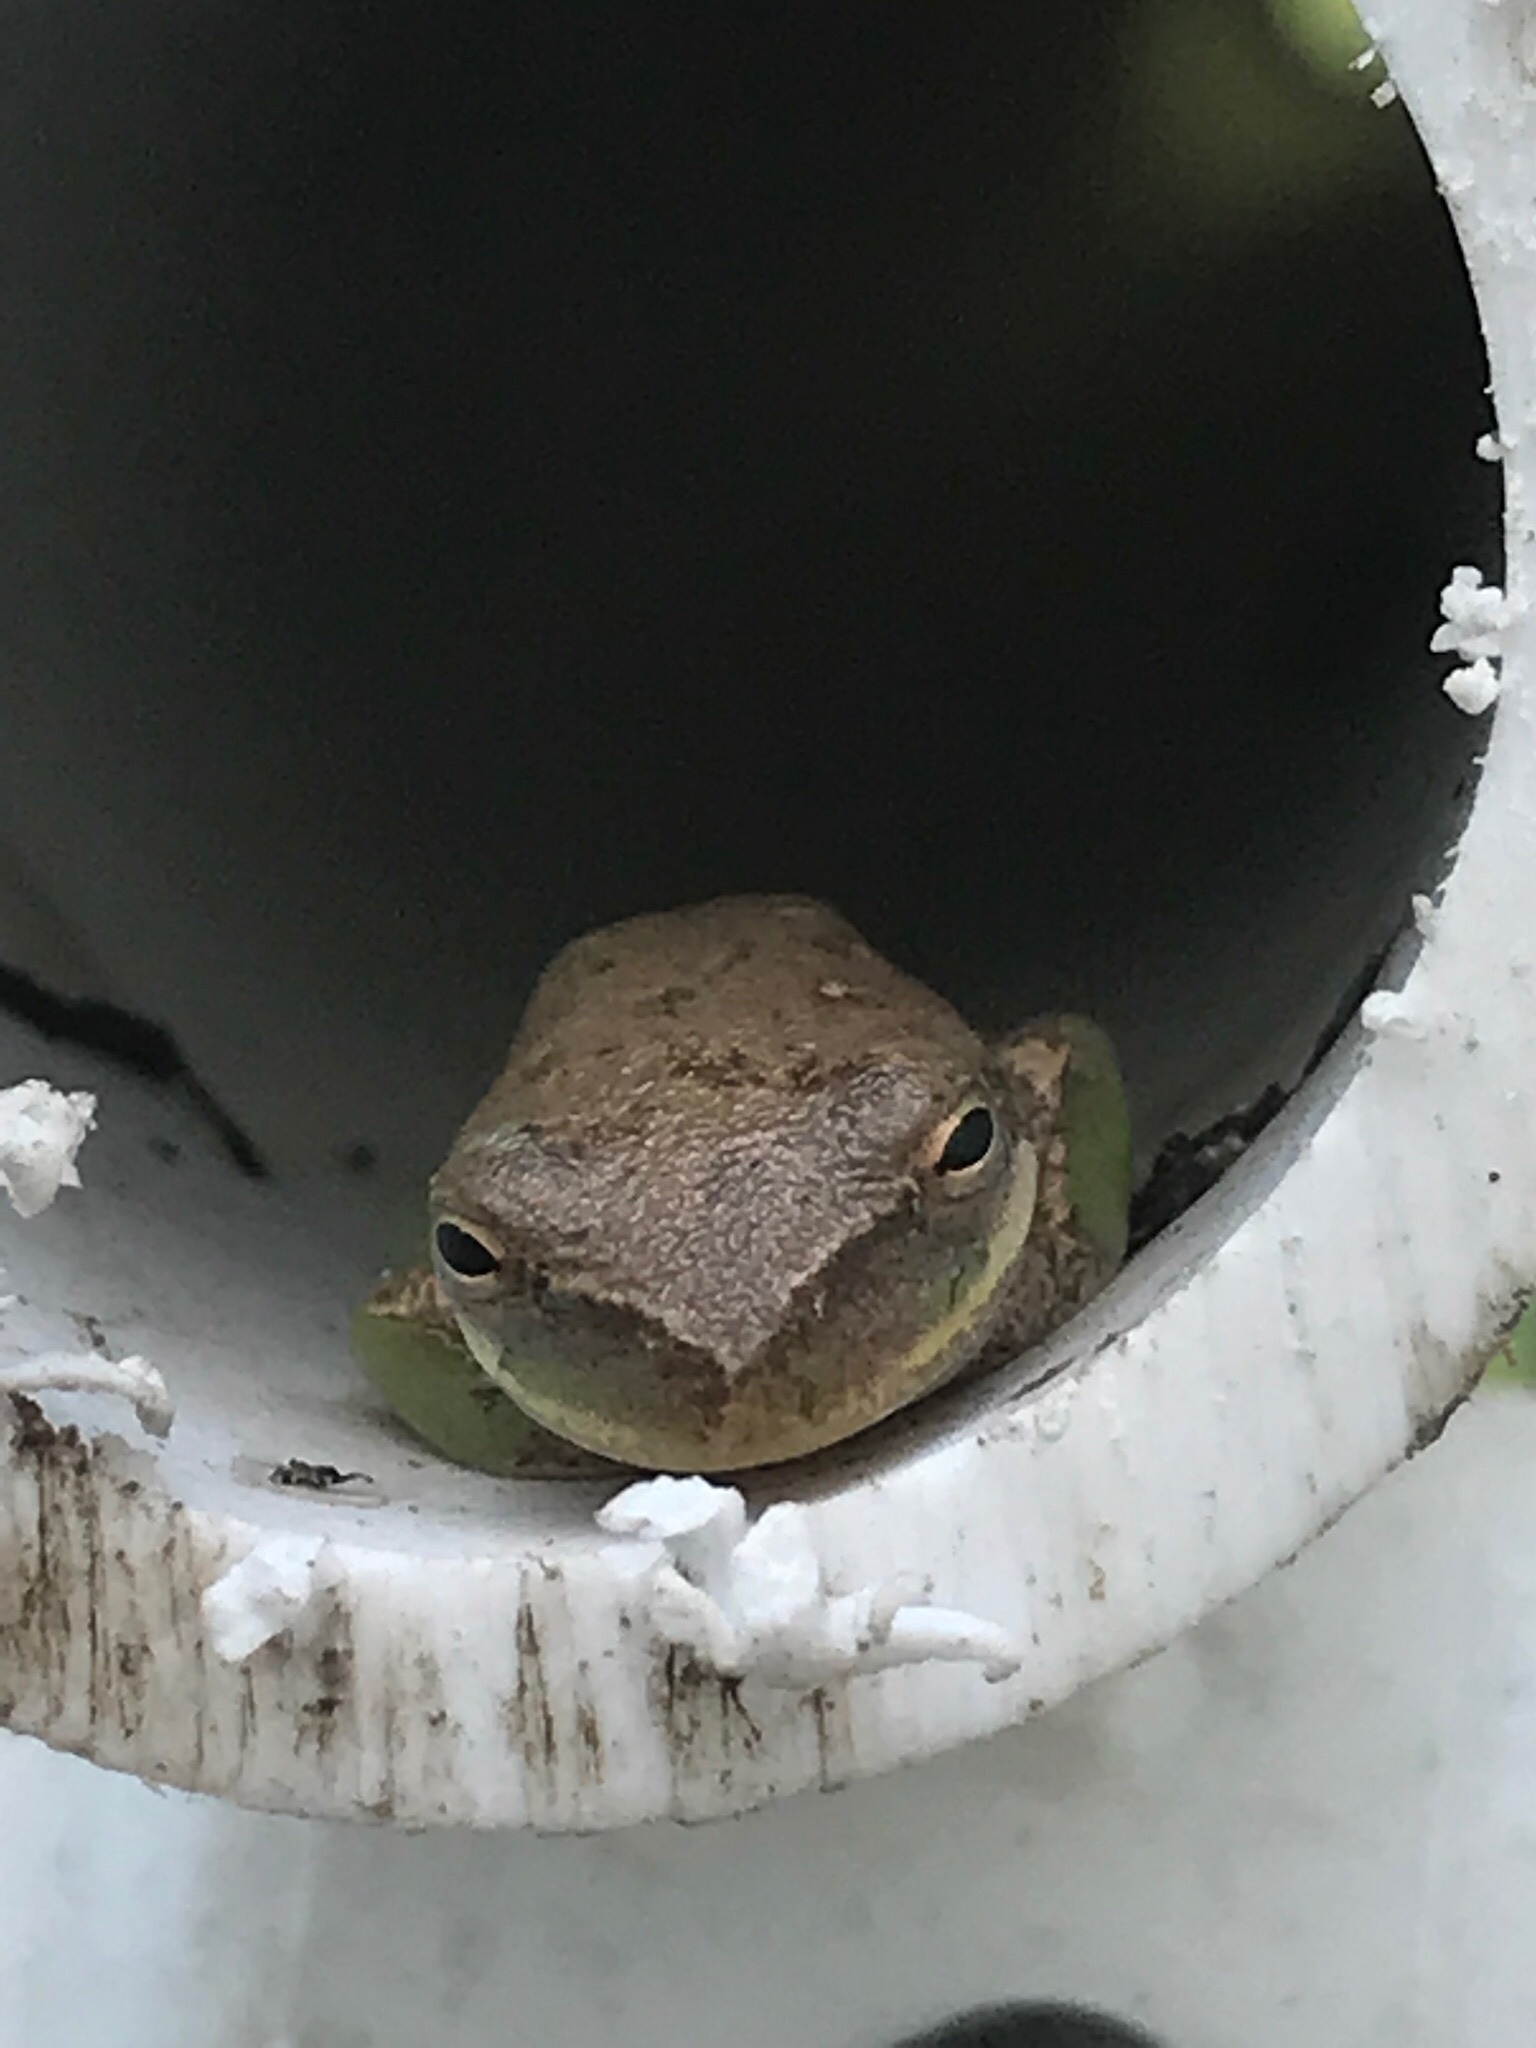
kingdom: Animalia
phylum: Chordata
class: Amphibia
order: Anura
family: Hylidae
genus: Dryophytes
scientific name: Dryophytes squirellus
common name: Squirrel treefrog
